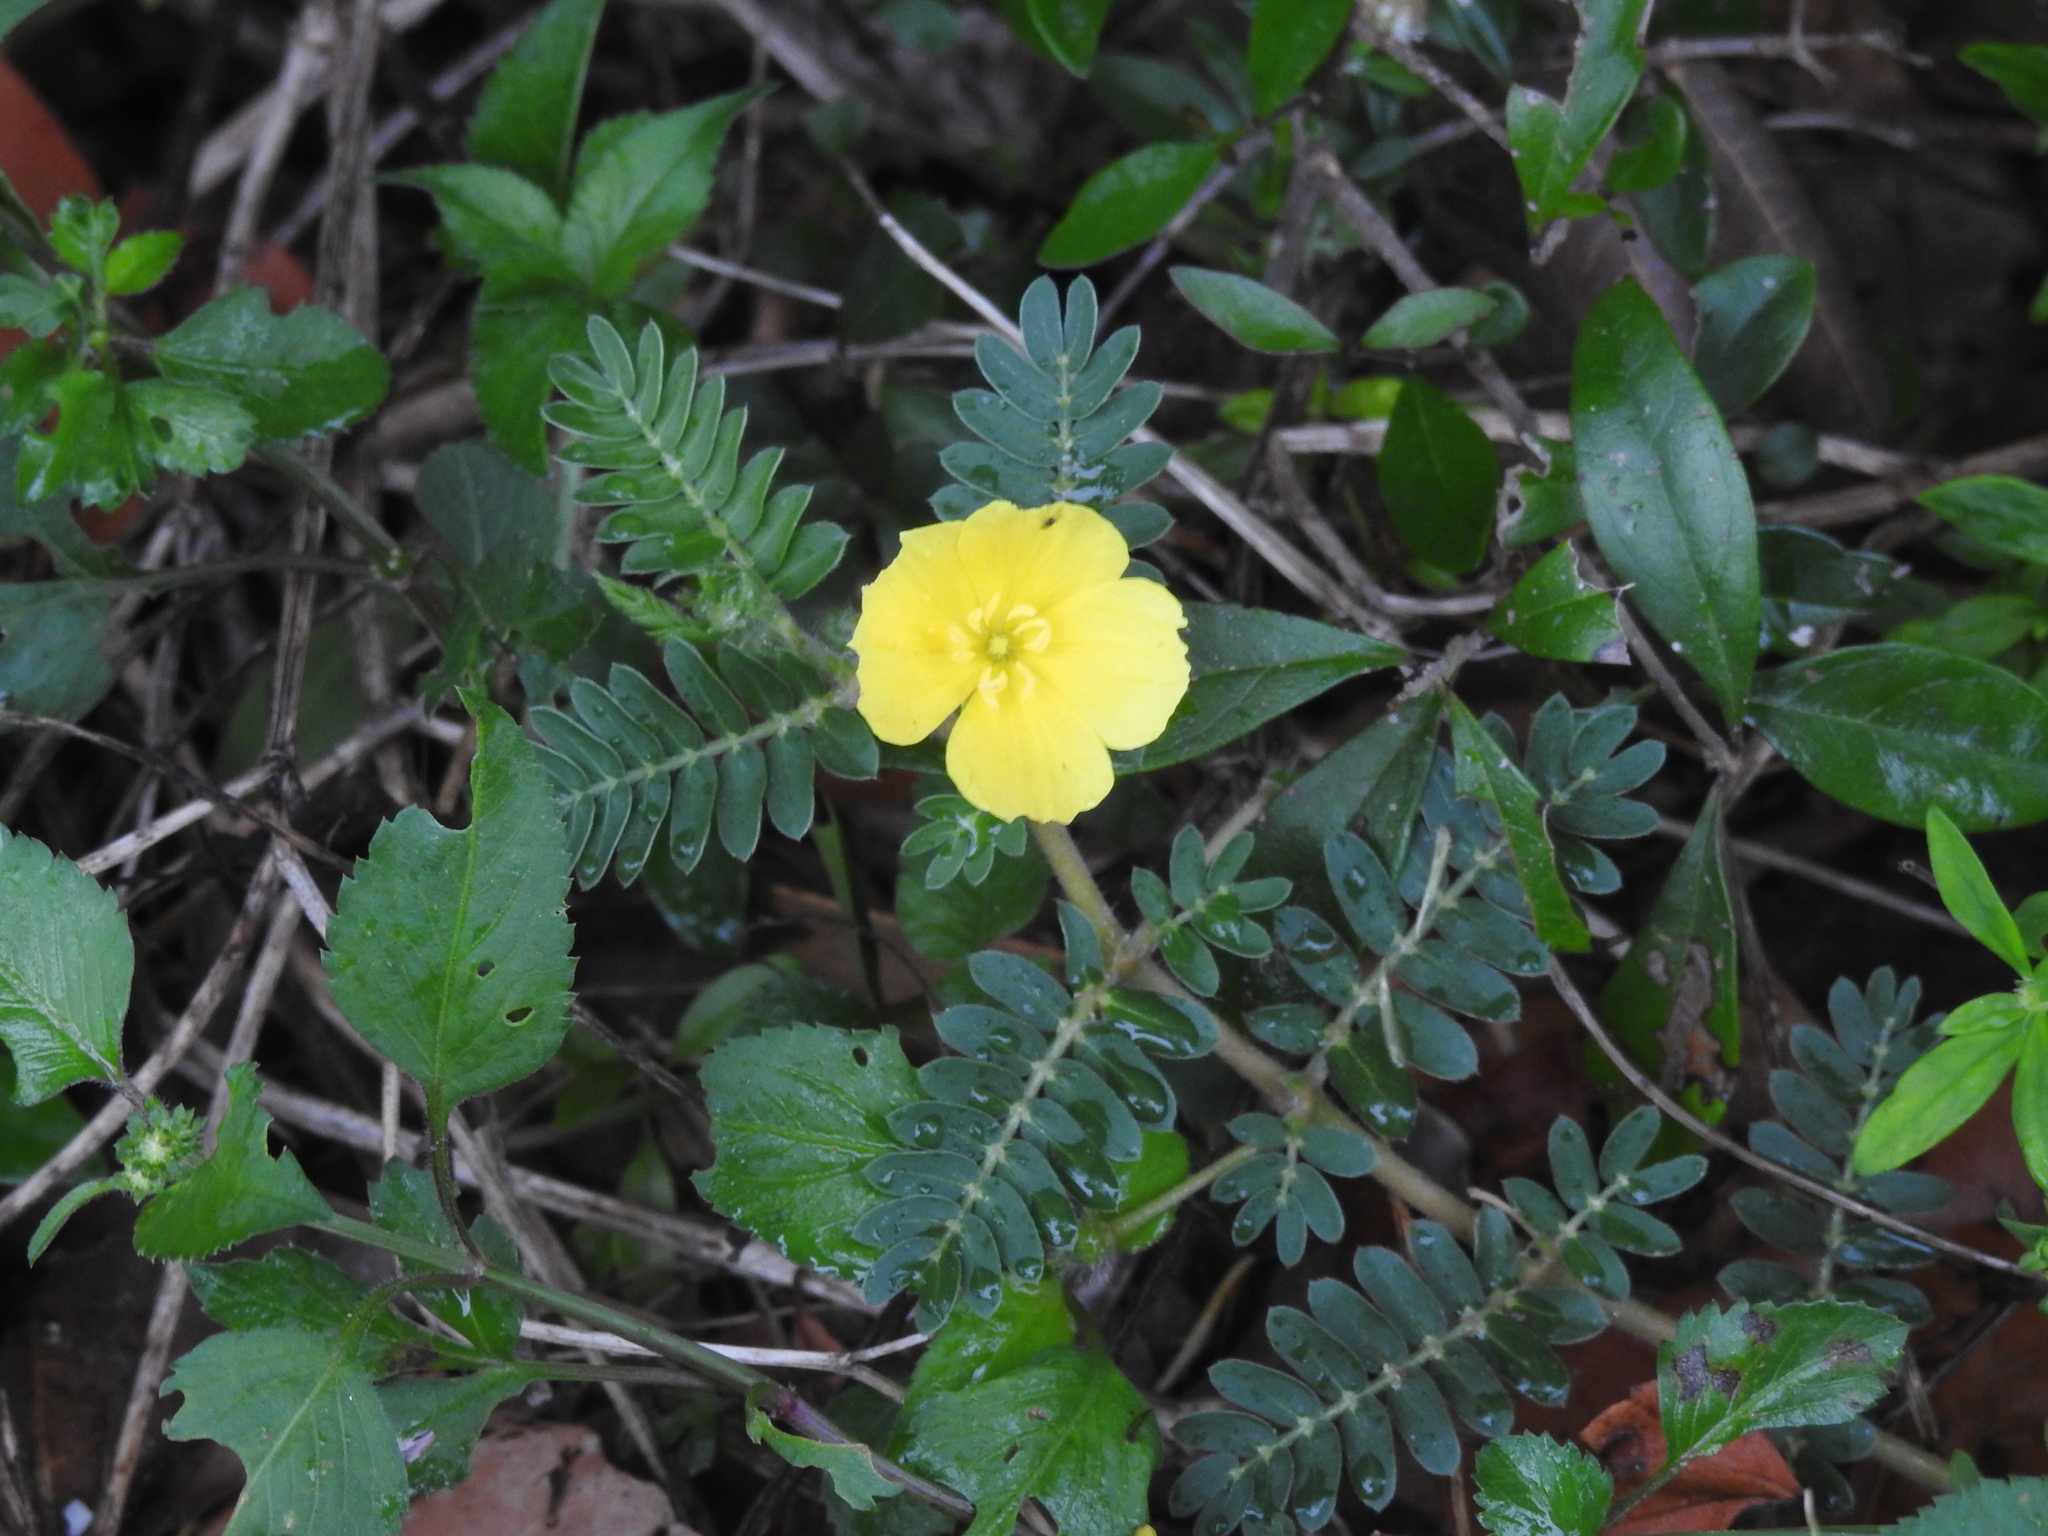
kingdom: Plantae
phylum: Tracheophyta
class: Magnoliopsida
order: Zygophyllales
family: Zygophyllaceae
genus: Tribulus
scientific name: Tribulus cistoides
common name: Jamaican feverplant
